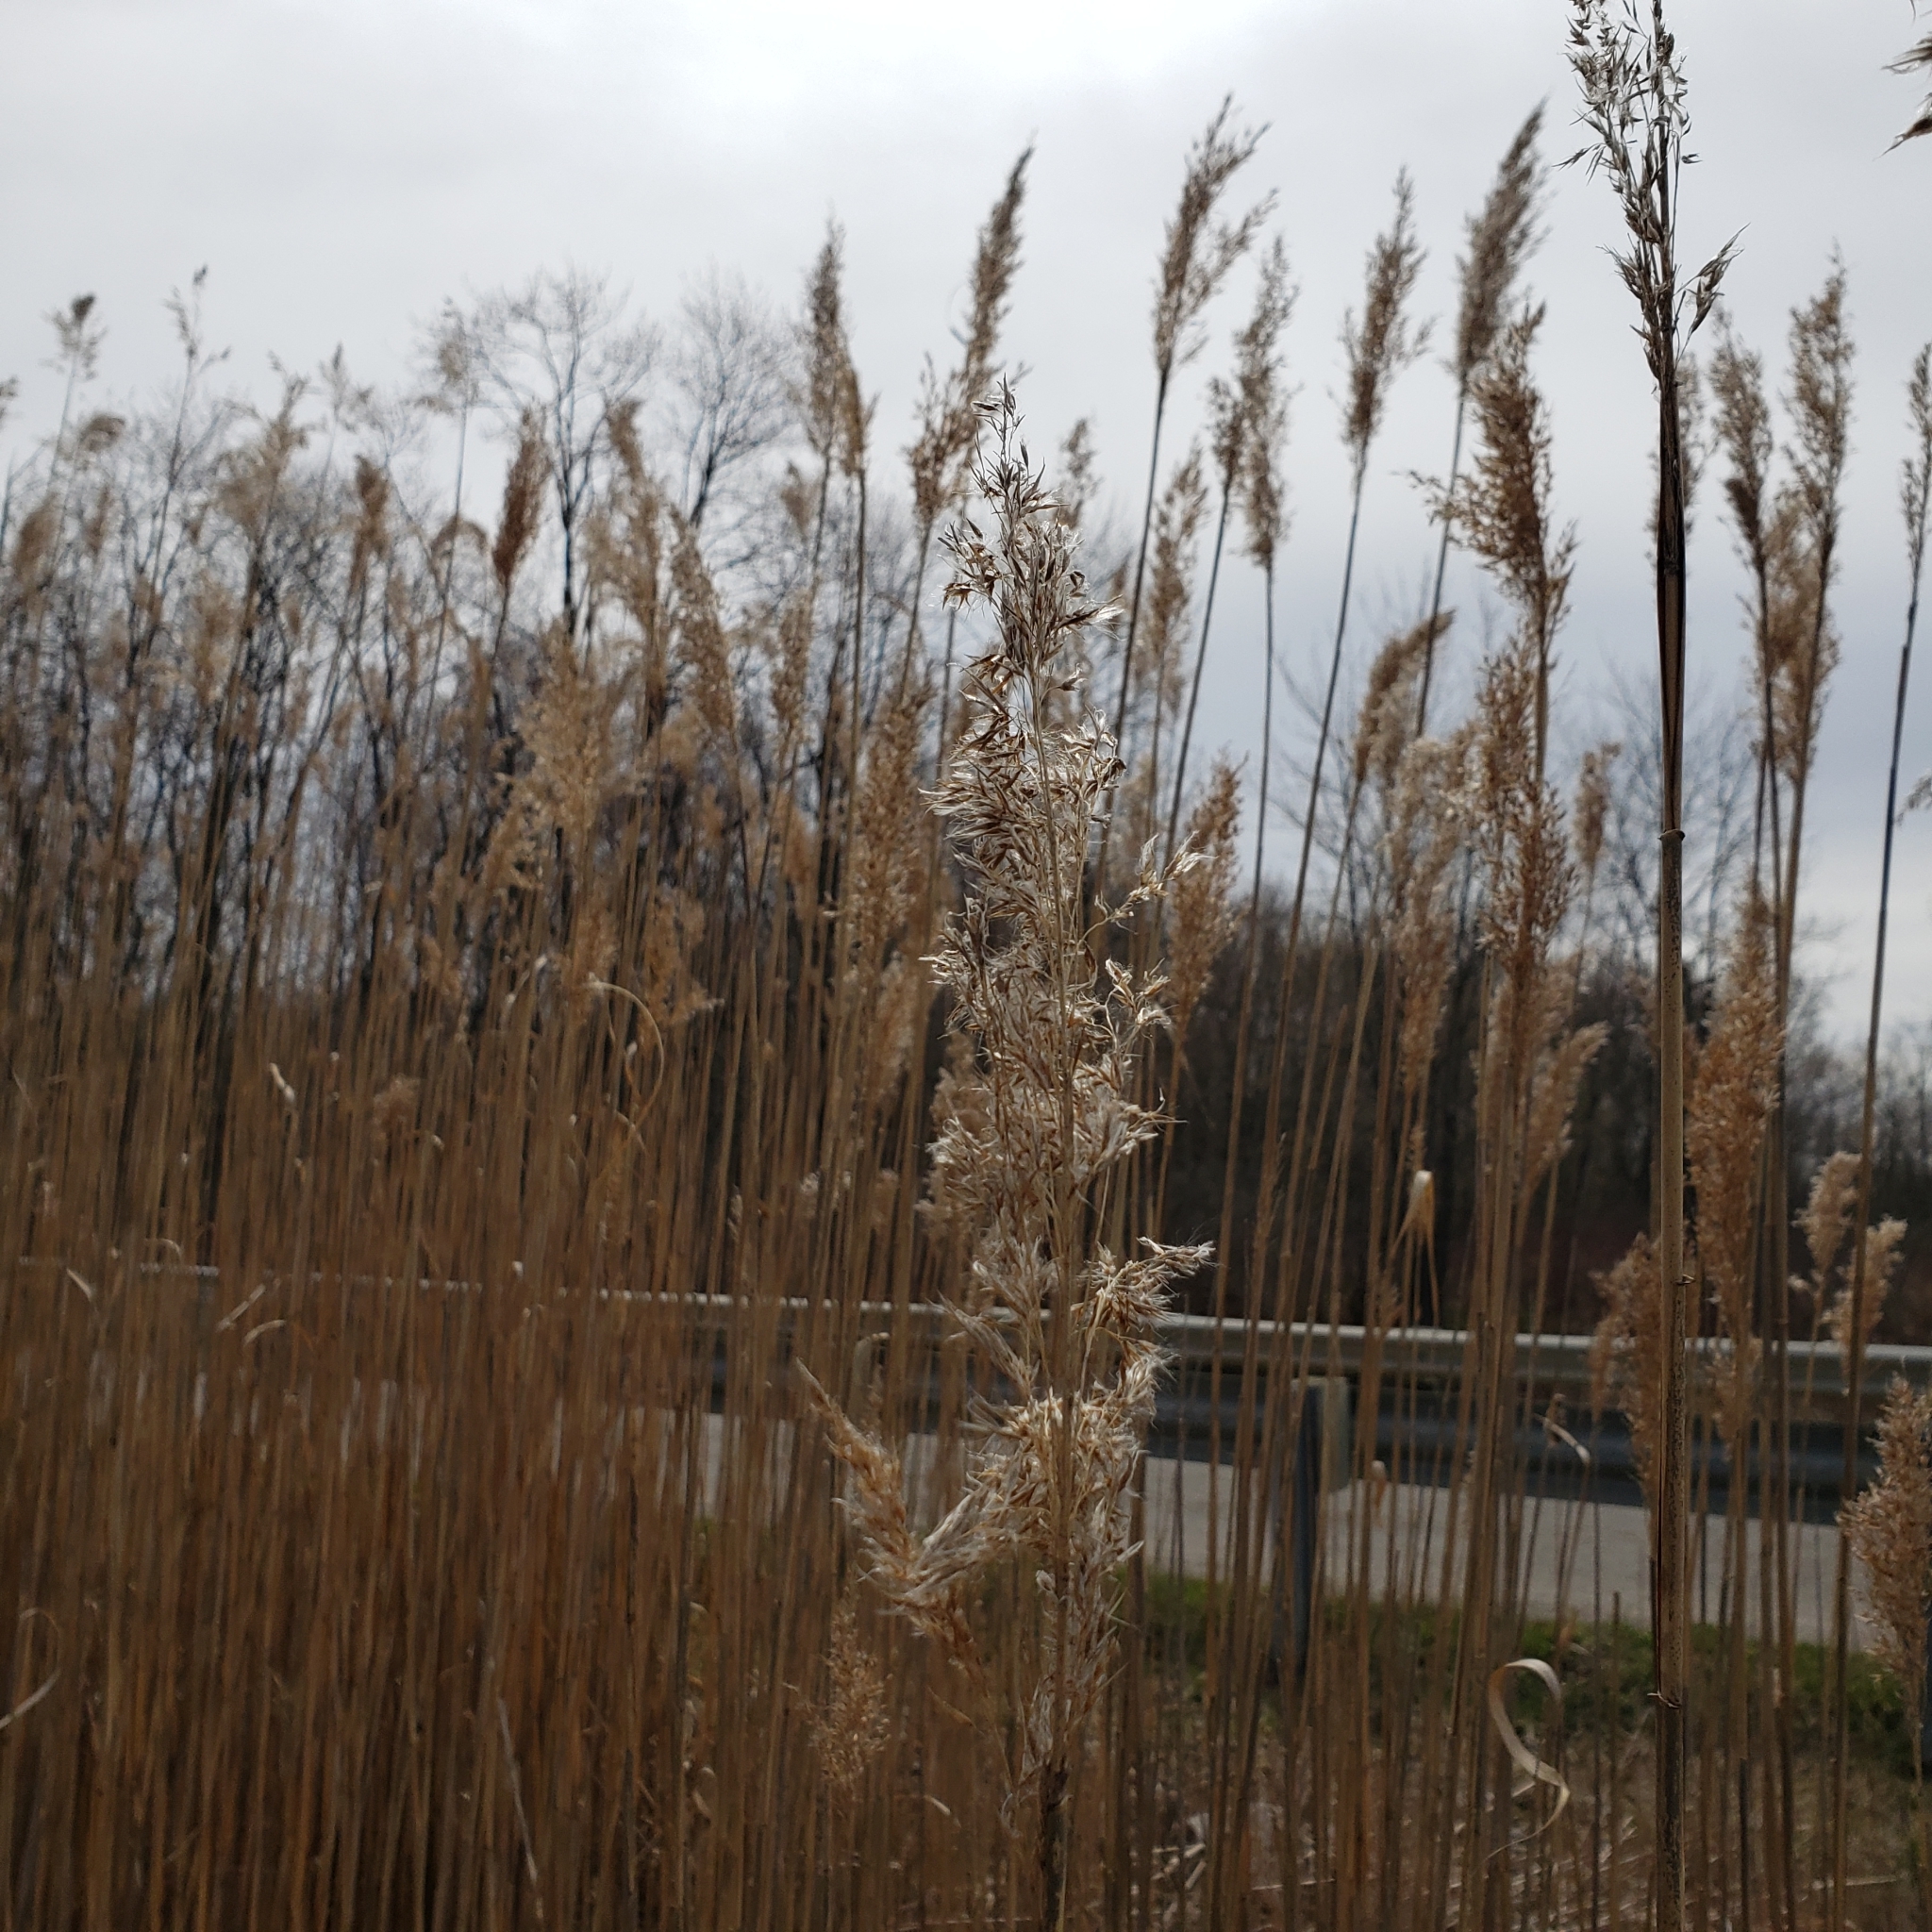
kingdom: Plantae
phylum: Tracheophyta
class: Liliopsida
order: Poales
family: Poaceae
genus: Phragmites
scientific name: Phragmites australis
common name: Common reed
